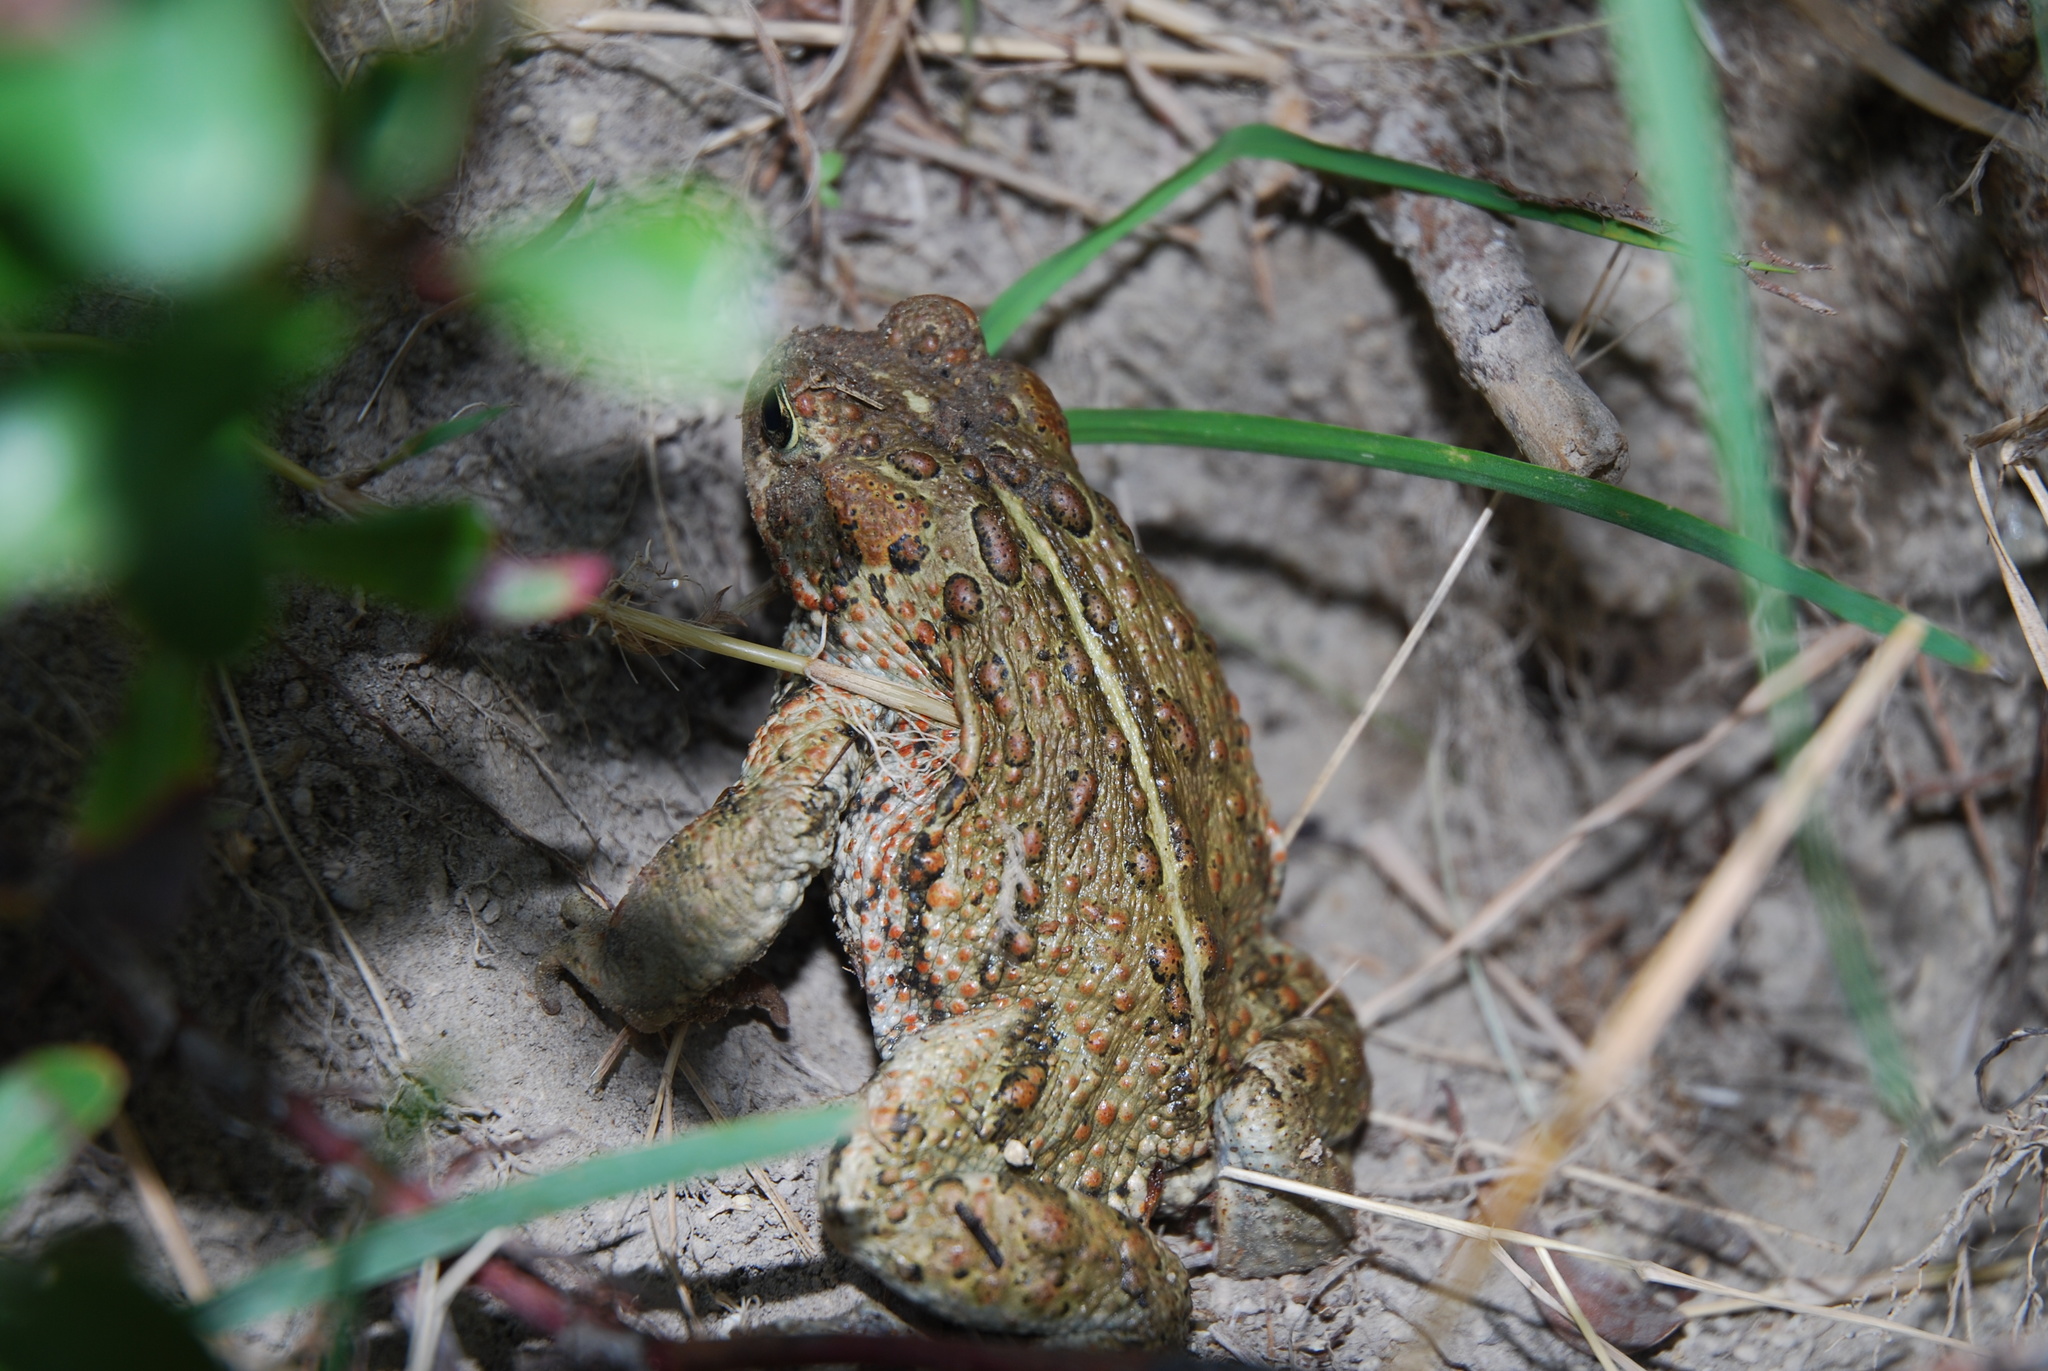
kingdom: Animalia
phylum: Chordata
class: Amphibia
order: Anura
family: Bufonidae
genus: Anaxyrus
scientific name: Anaxyrus boreas
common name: Western toad
